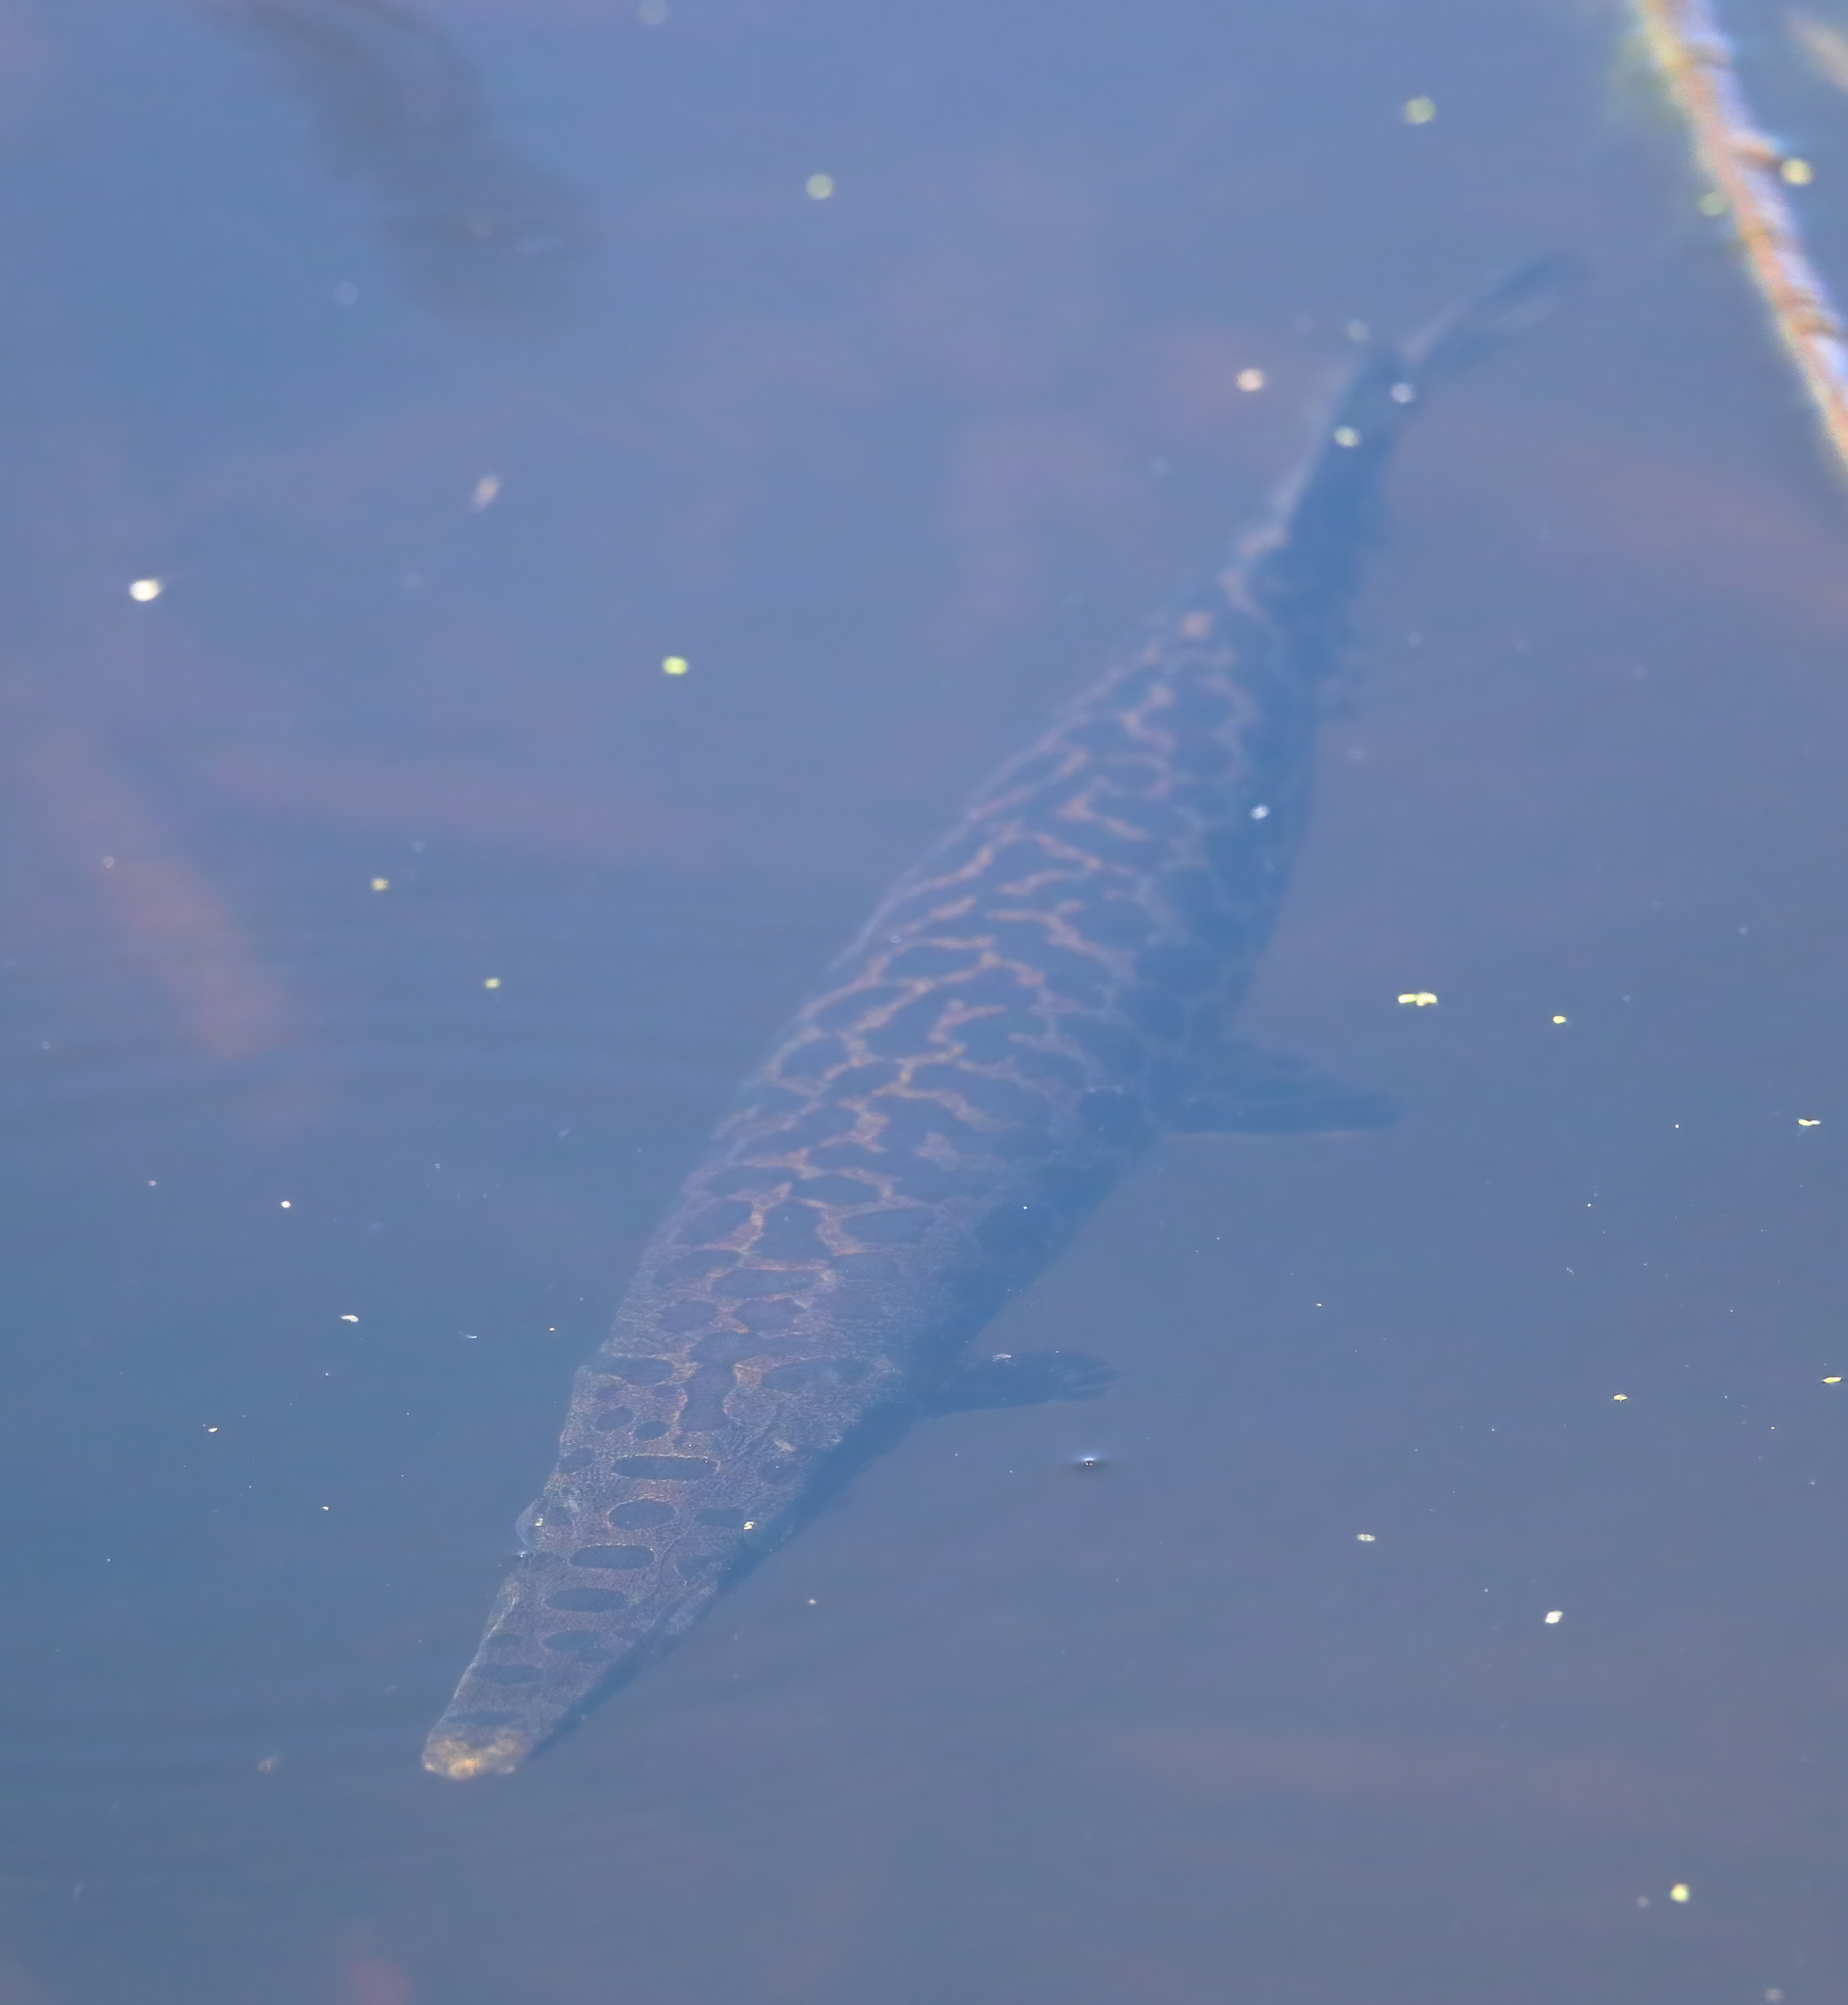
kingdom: Animalia
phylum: Chordata
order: Lepisosteiformes
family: Lepisosteidae
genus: Lepisosteus
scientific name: Lepisosteus oculatus
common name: Spotted gar
